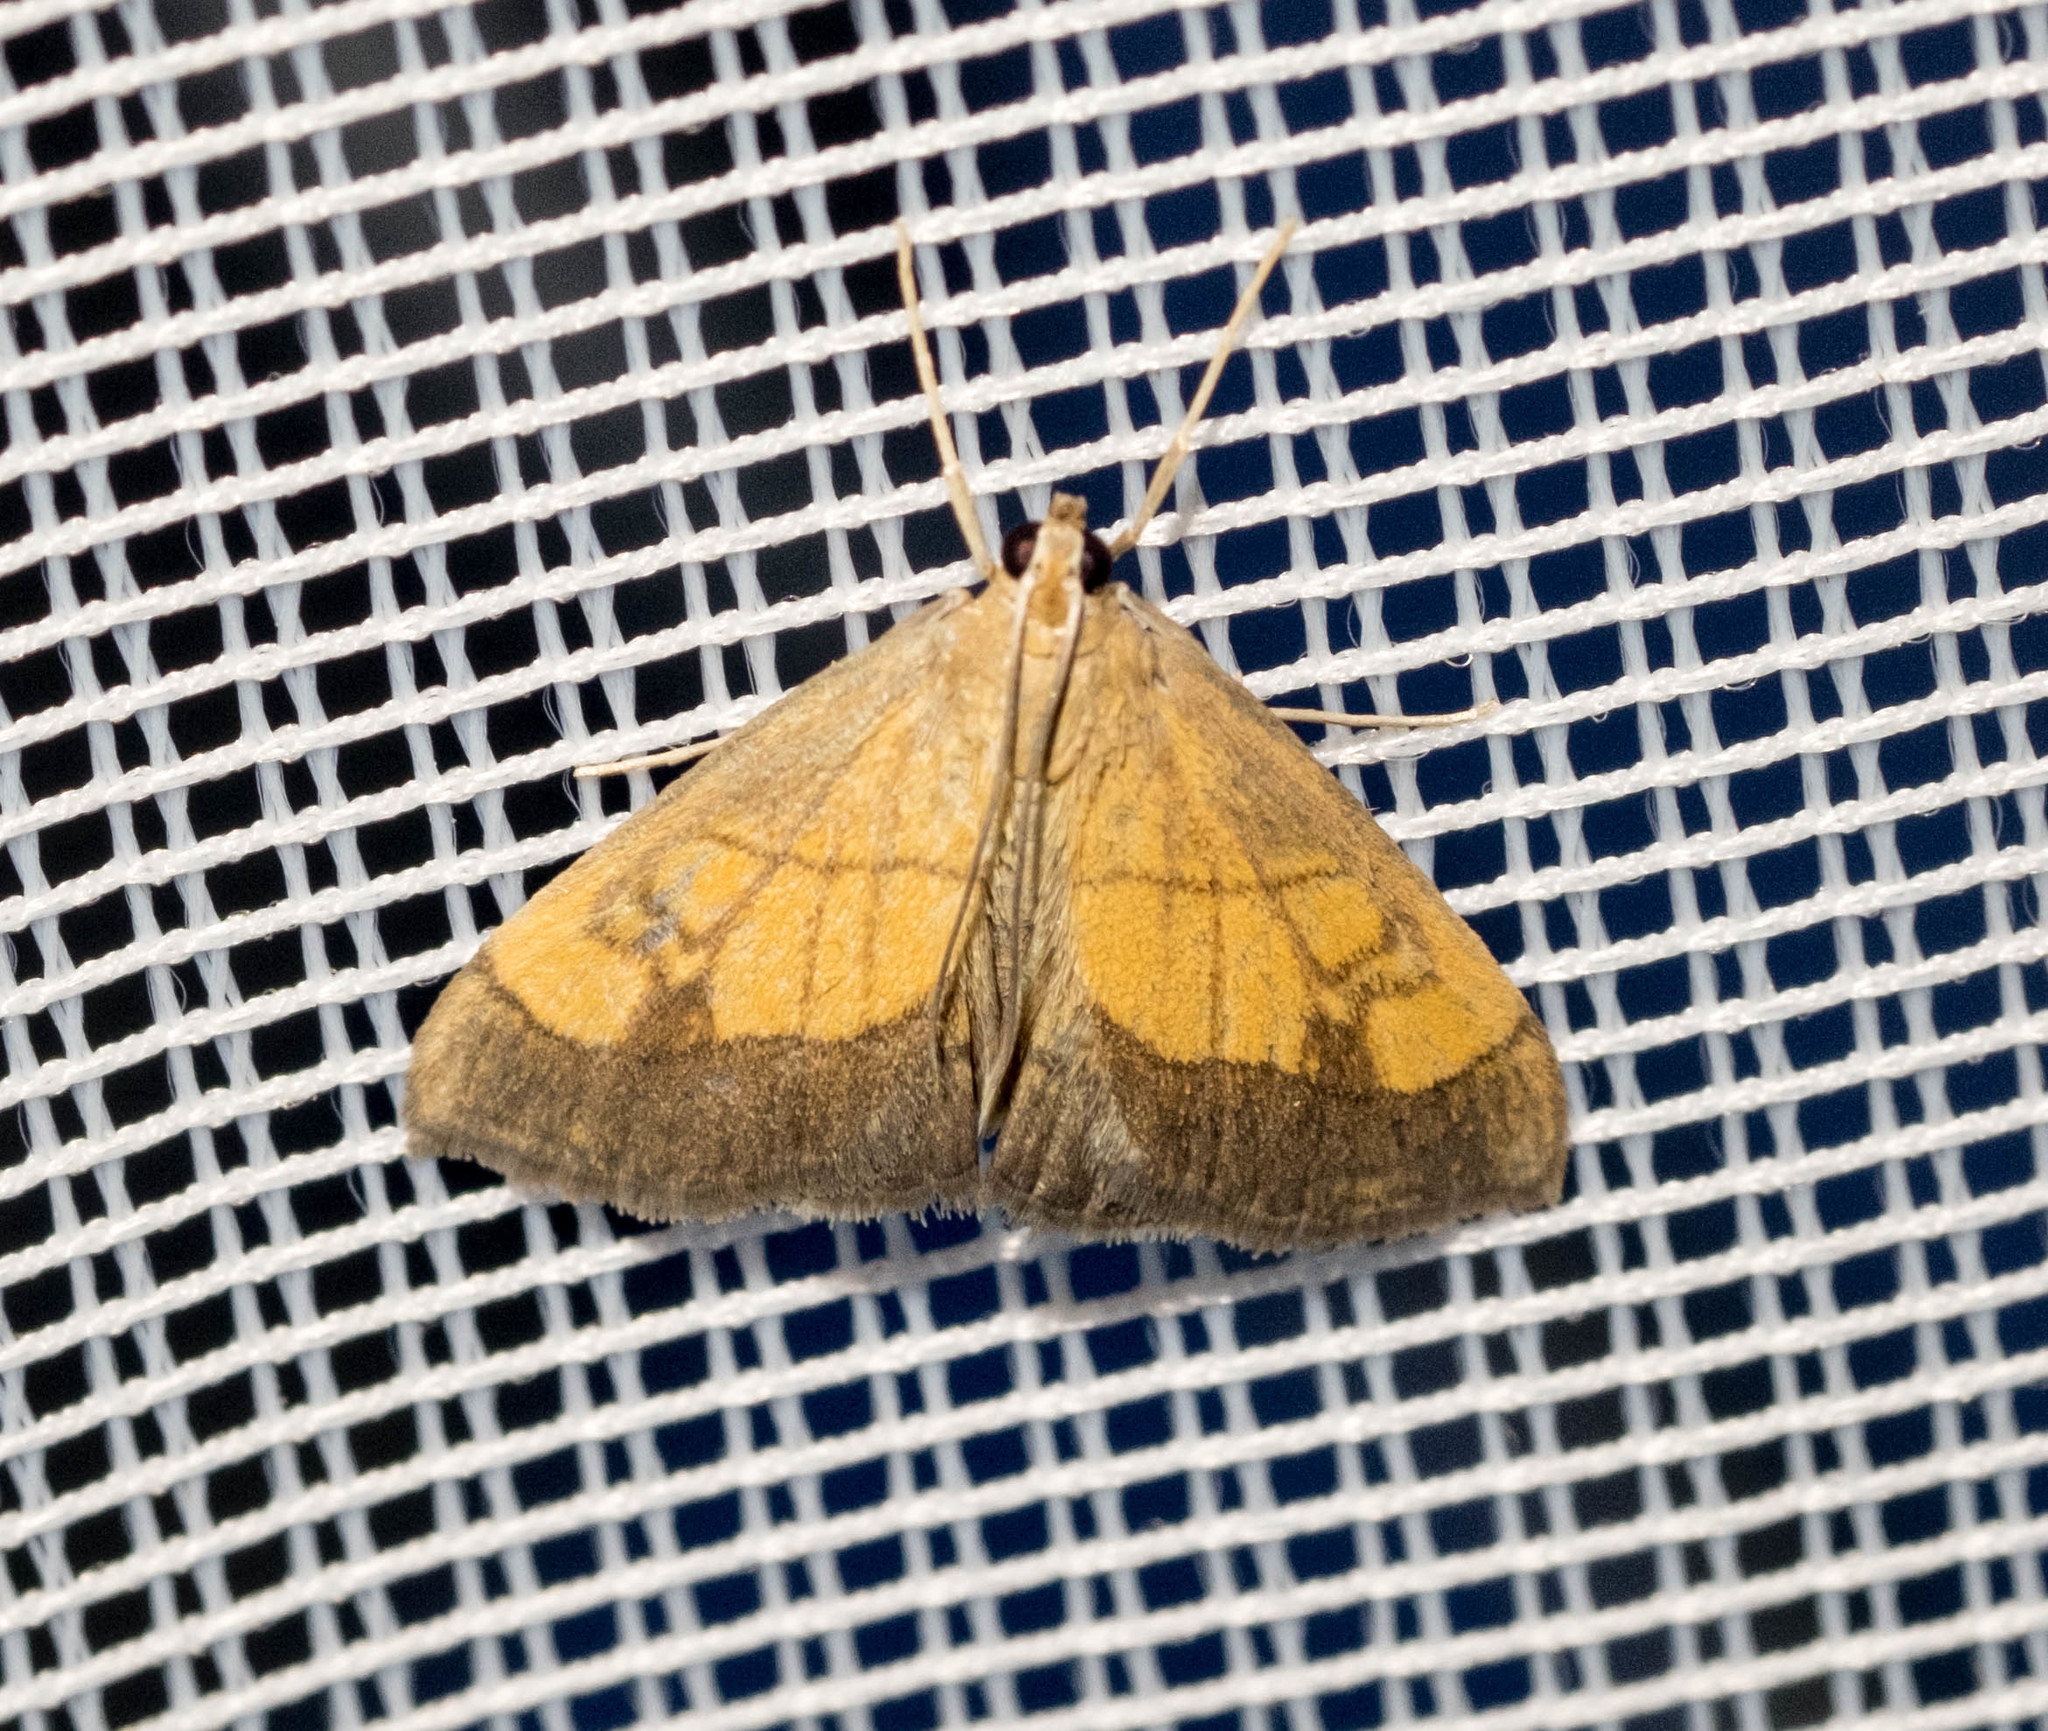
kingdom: Animalia
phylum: Arthropoda
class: Insecta
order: Lepidoptera
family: Crambidae
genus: Evergestis
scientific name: Evergestis limbata
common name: Dark bordered pearl
